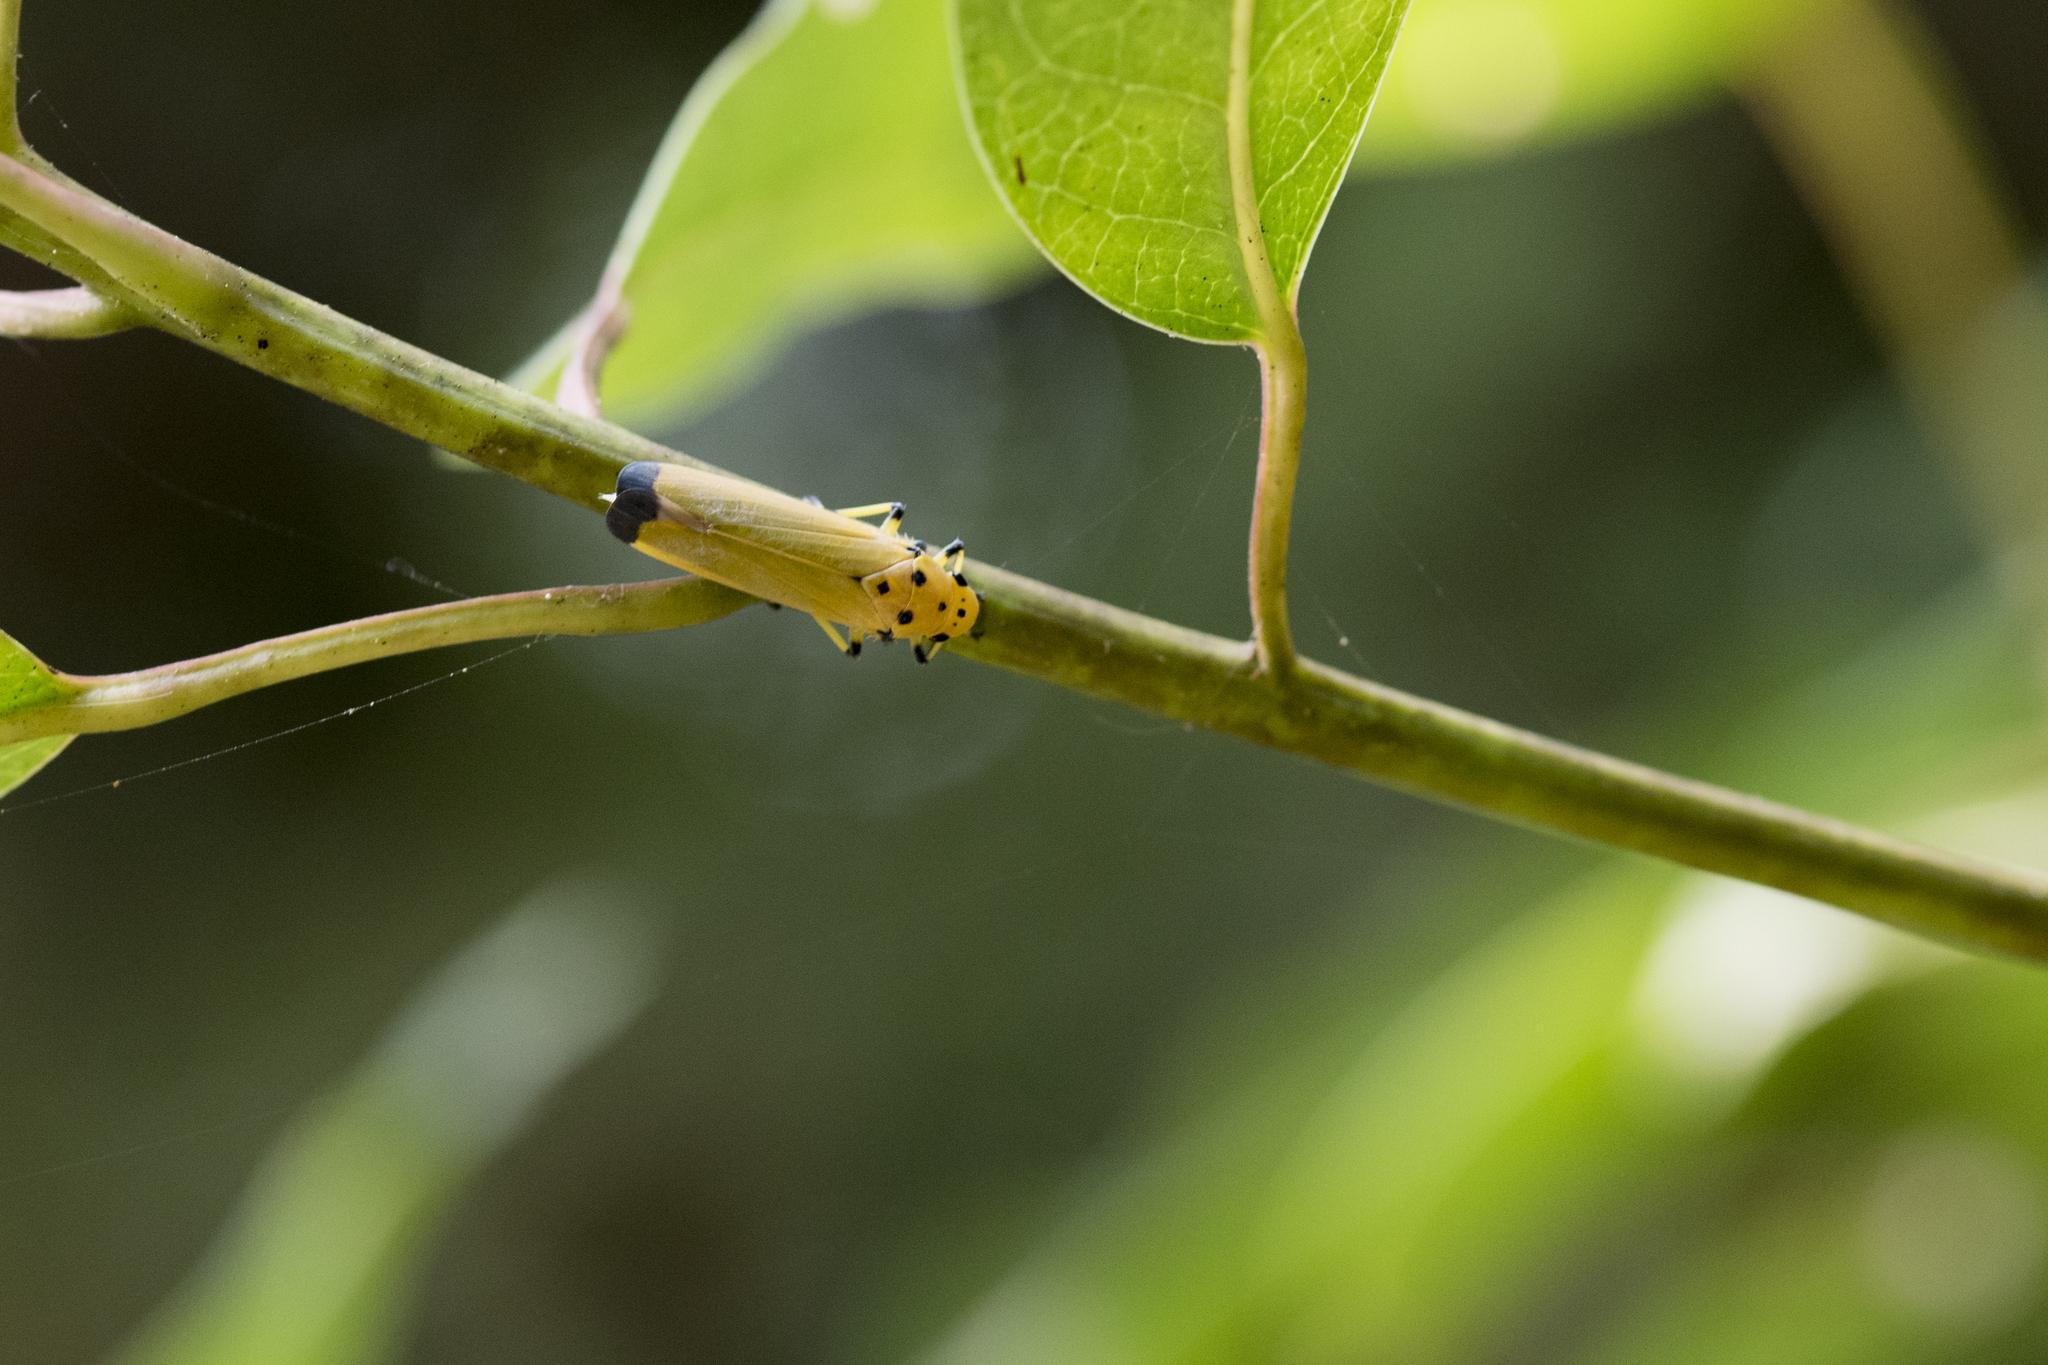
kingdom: Animalia
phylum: Arthropoda
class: Insecta
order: Hemiptera
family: Cicadellidae
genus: Bothrogonia
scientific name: Bothrogonia ferruginea
